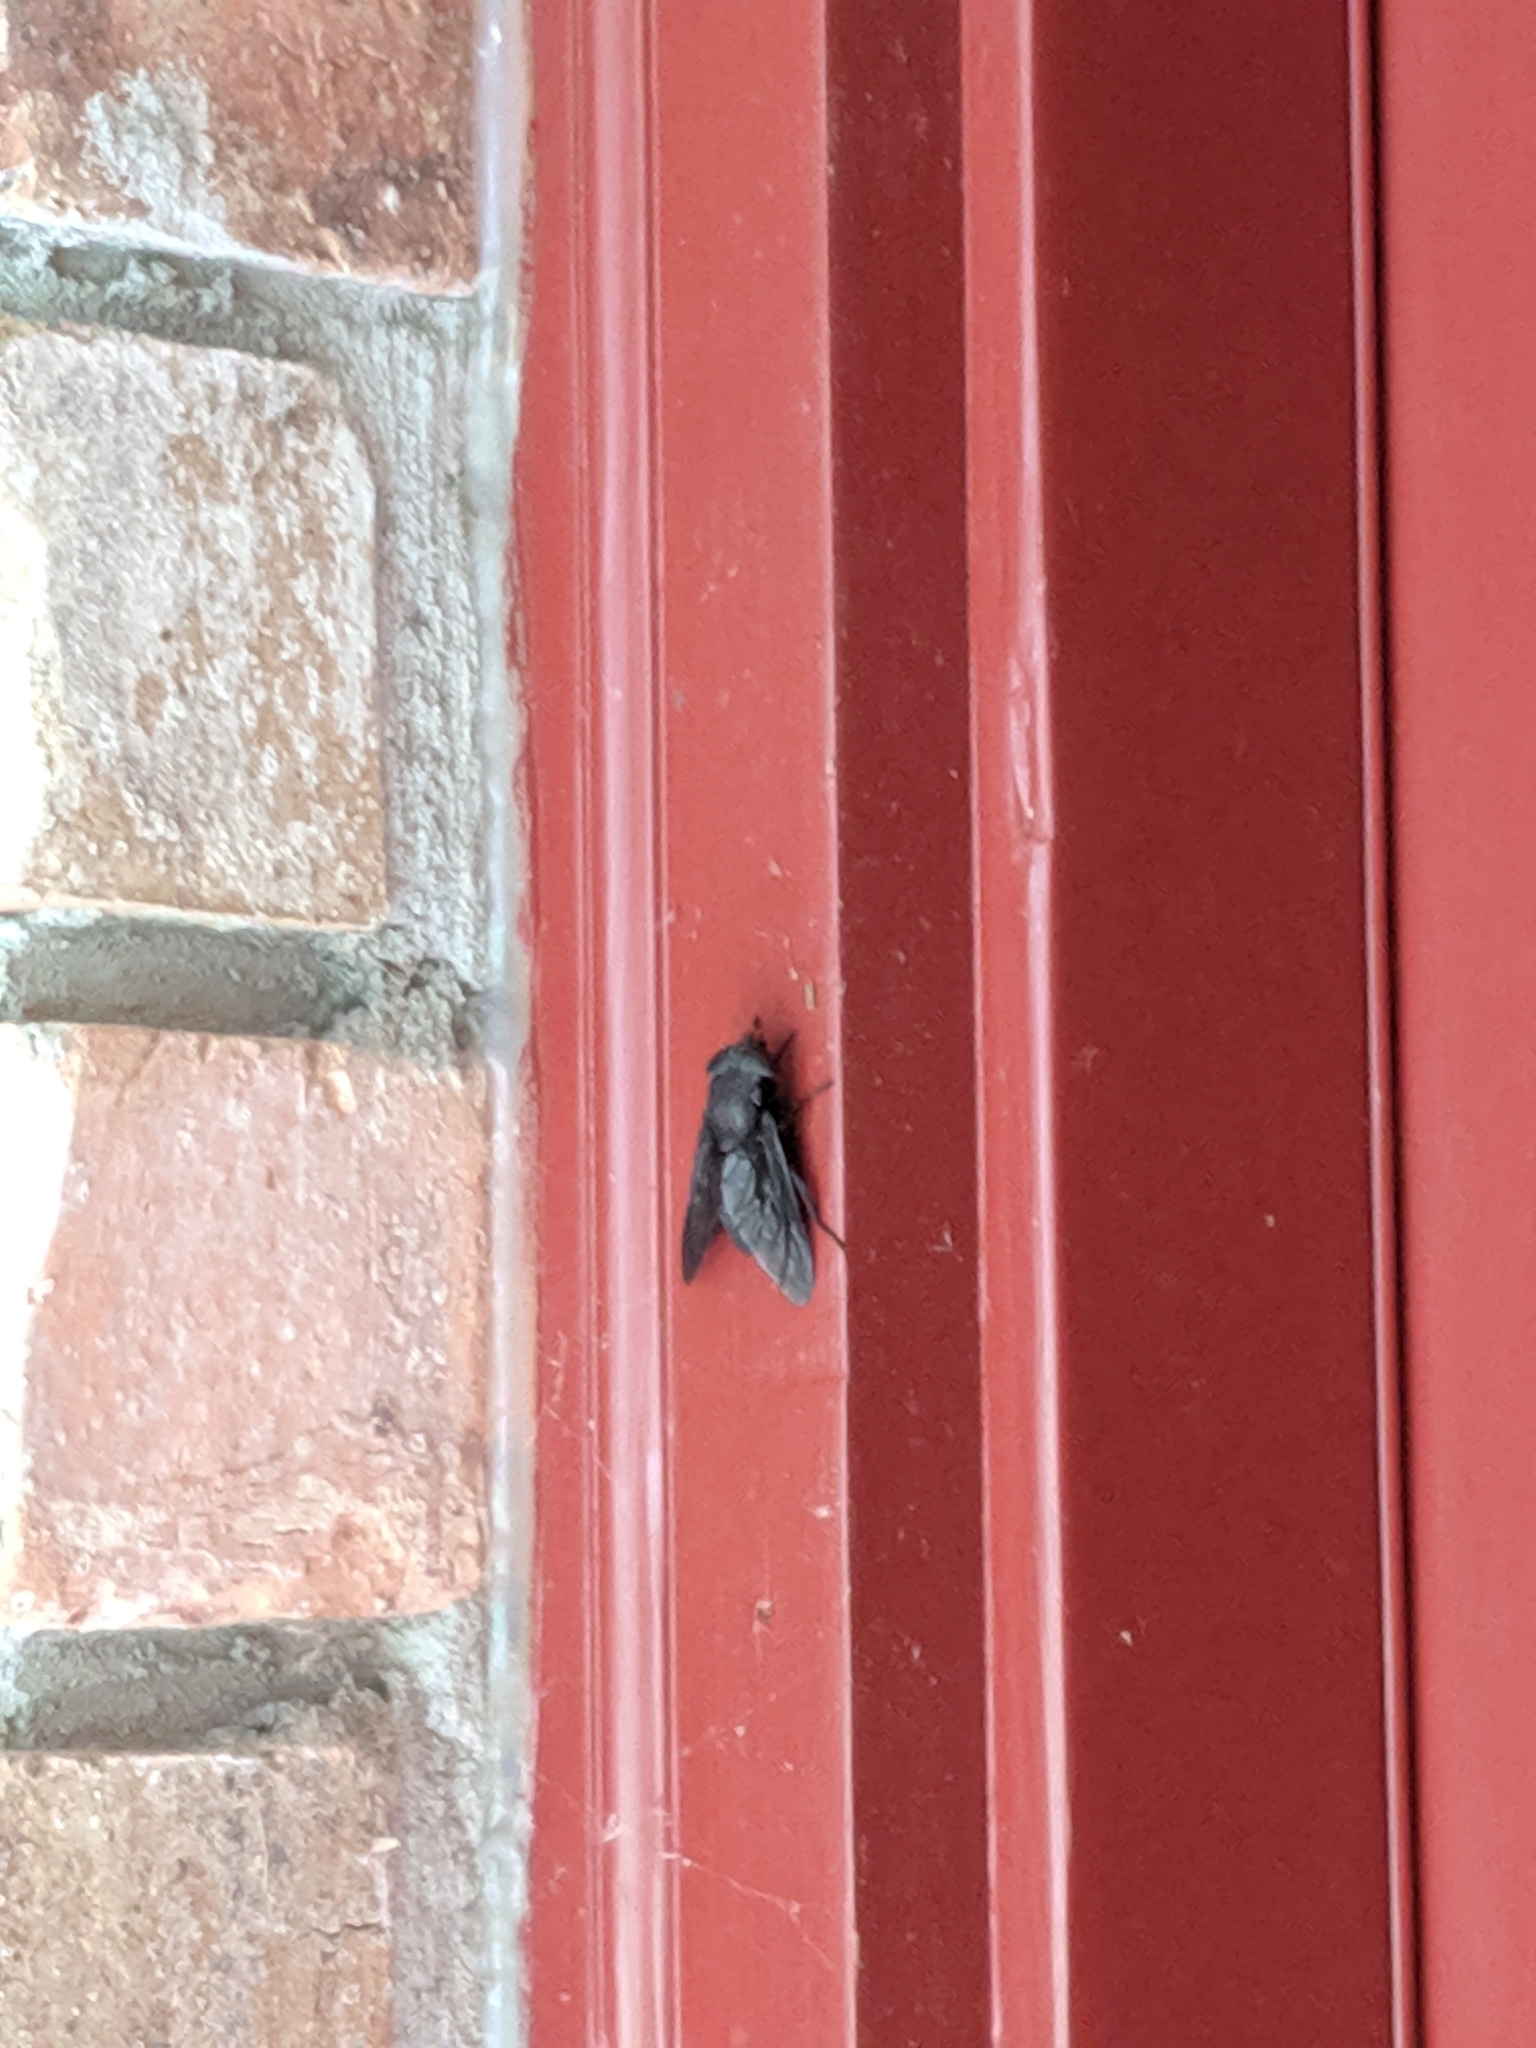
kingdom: Animalia
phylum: Arthropoda
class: Insecta
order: Diptera
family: Tabanidae
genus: Tabanus
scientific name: Tabanus atratus
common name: Black horse fly
